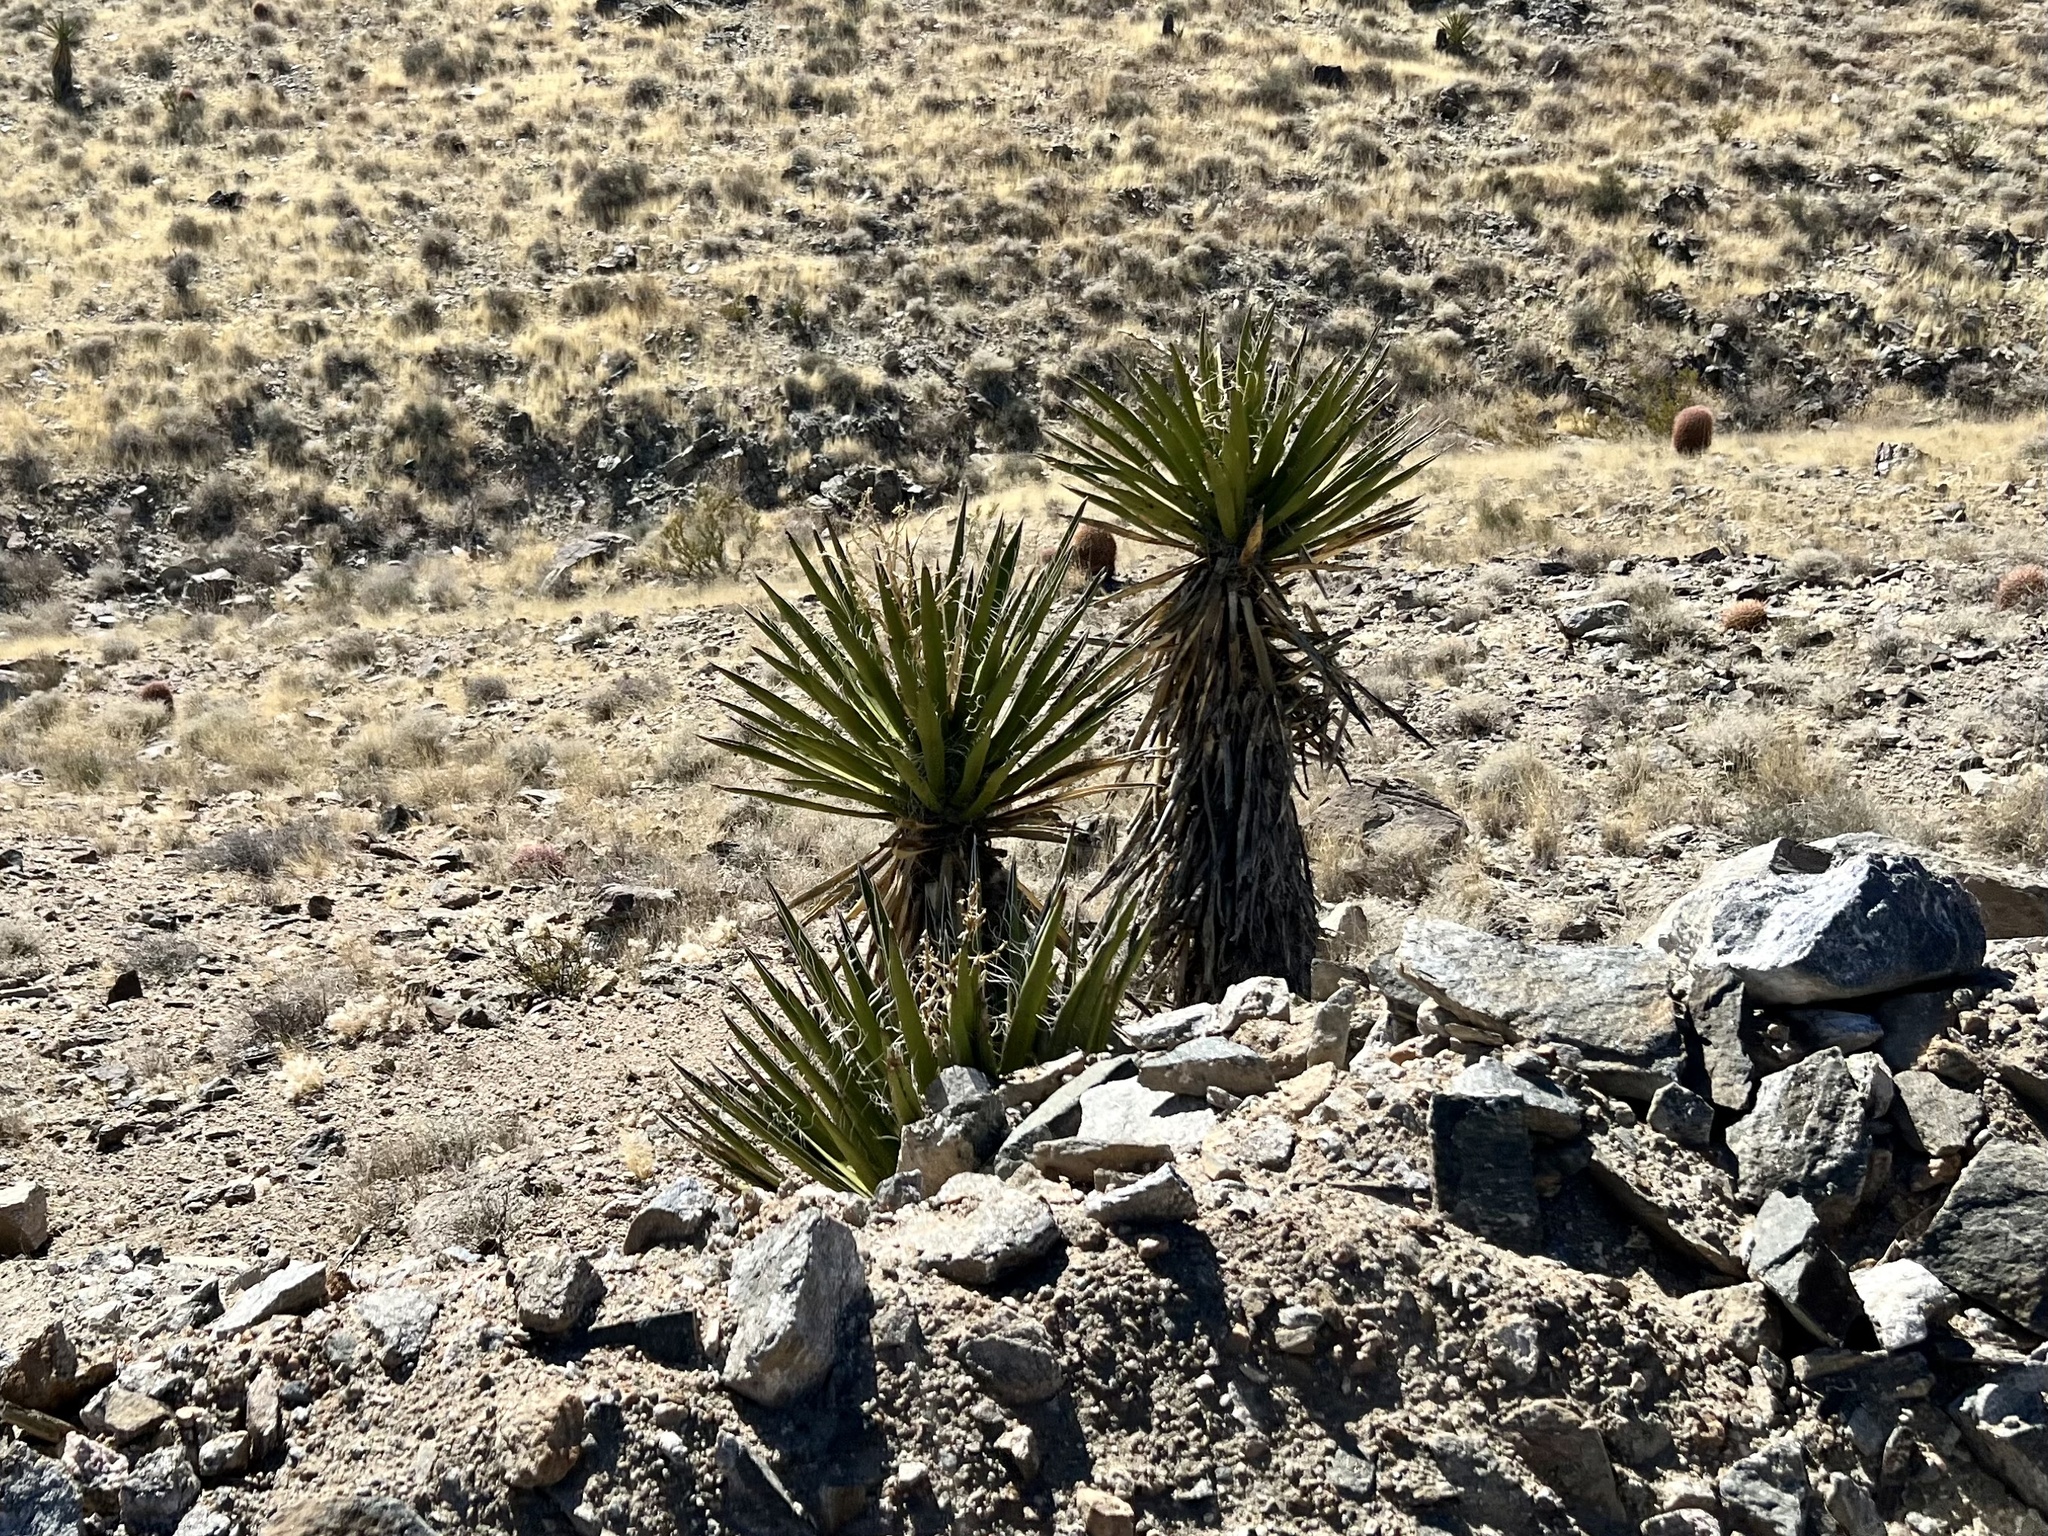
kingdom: Plantae
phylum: Tracheophyta
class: Liliopsida
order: Asparagales
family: Asparagaceae
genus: Yucca
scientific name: Yucca schidigera
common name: Mojave yucca
